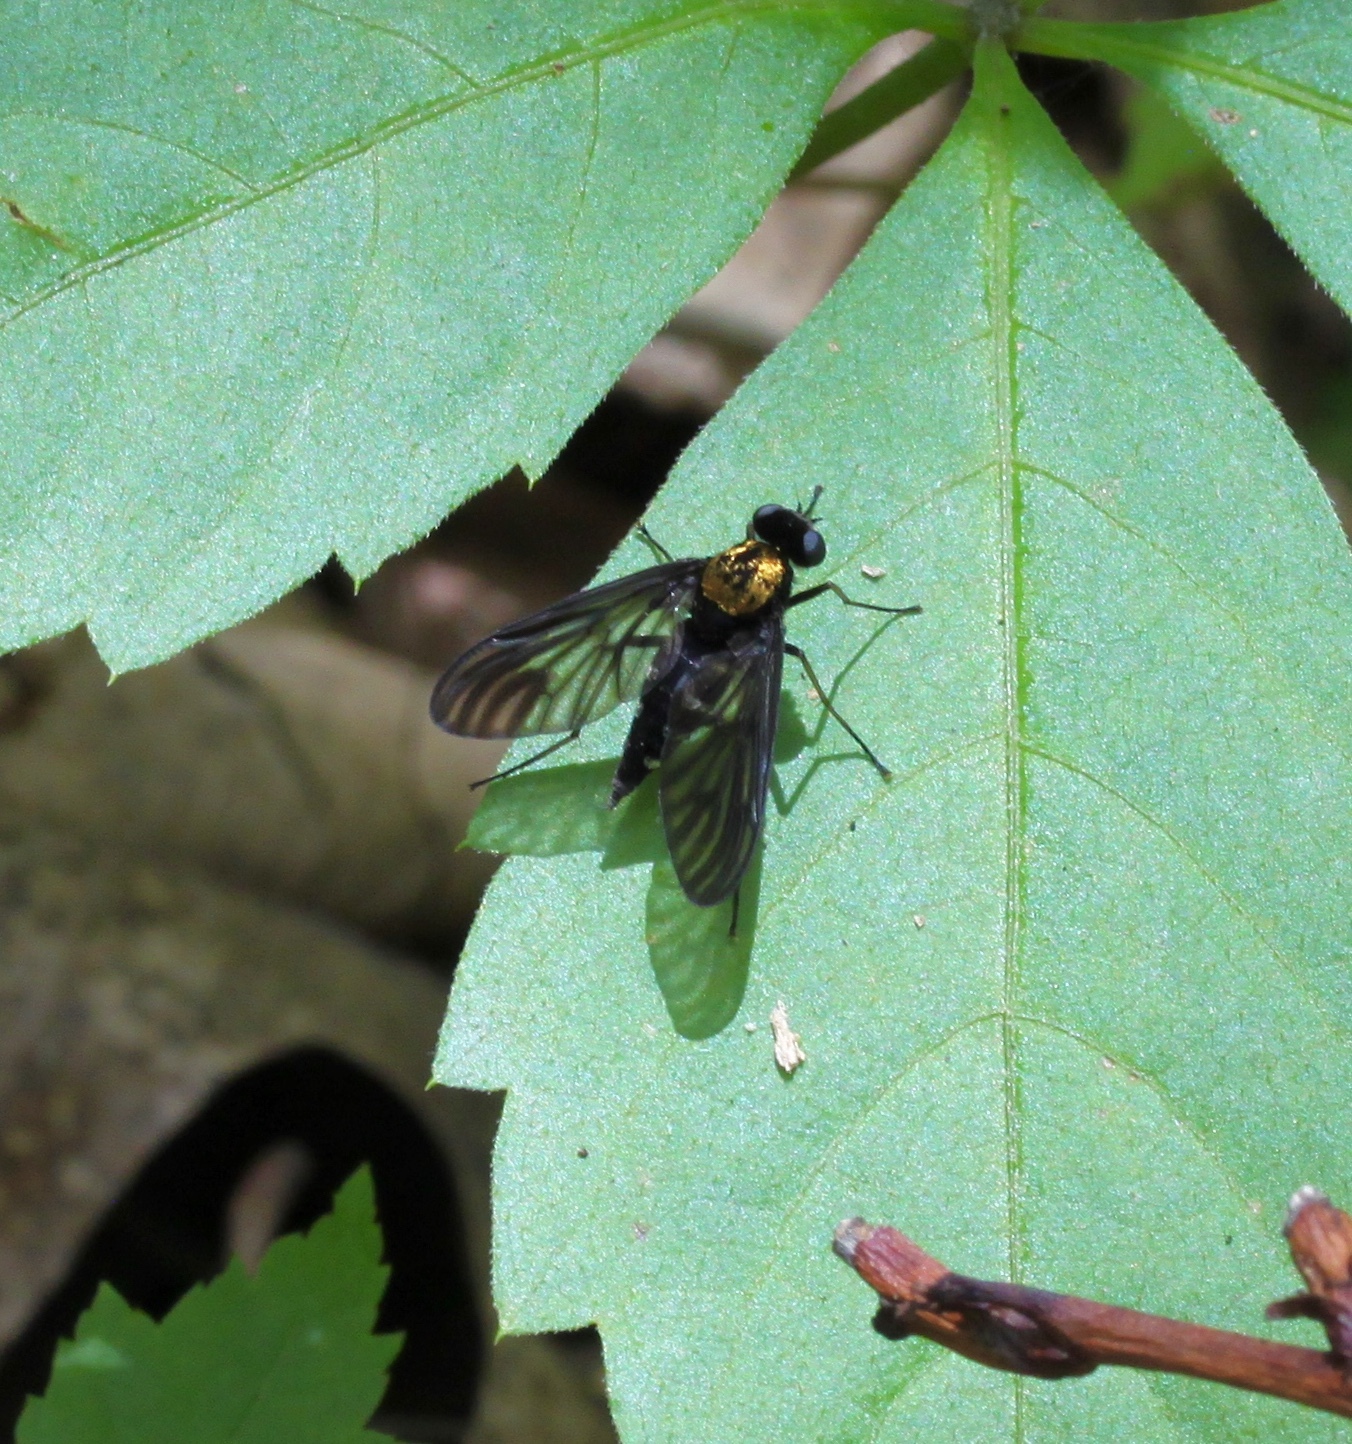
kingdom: Animalia
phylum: Arthropoda
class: Insecta
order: Diptera
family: Rhagionidae
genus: Chrysopilus
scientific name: Chrysopilus thoracicus
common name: Golden-backed snipe fly
